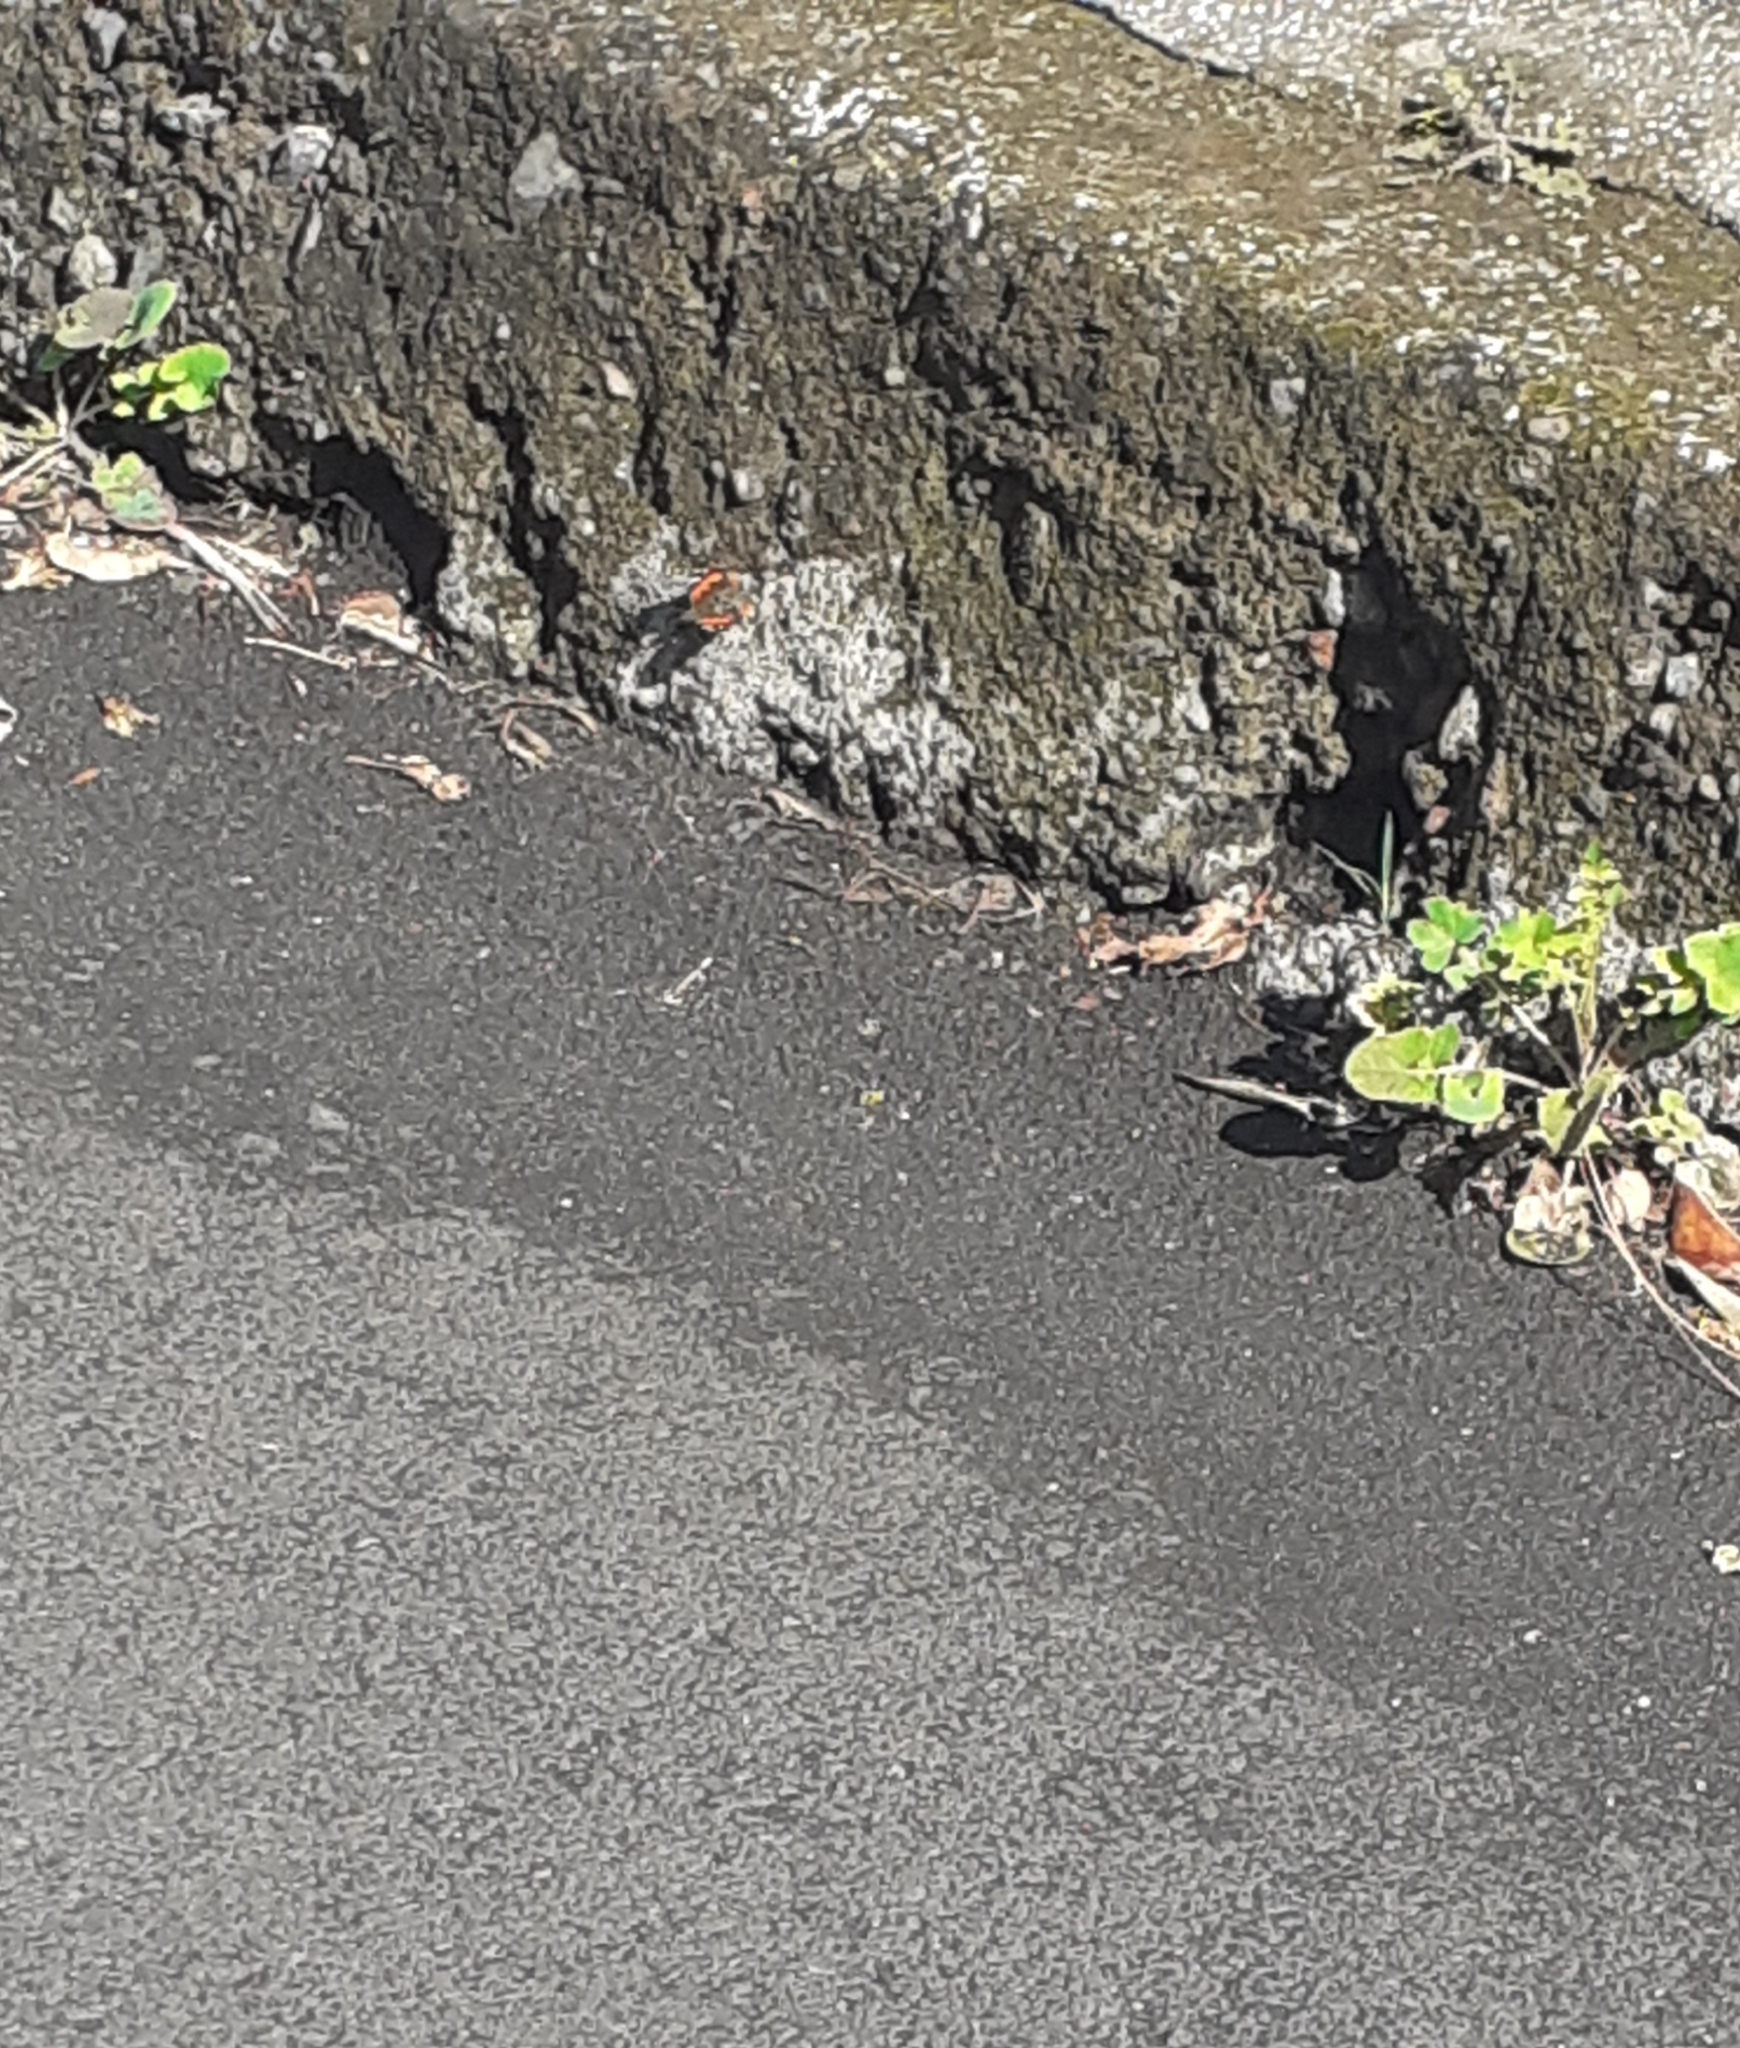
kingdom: Animalia
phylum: Arthropoda
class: Insecta
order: Lepidoptera
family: Nymphalidae
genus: Vanessa
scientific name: Vanessa vulcania
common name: Canary red admiral
